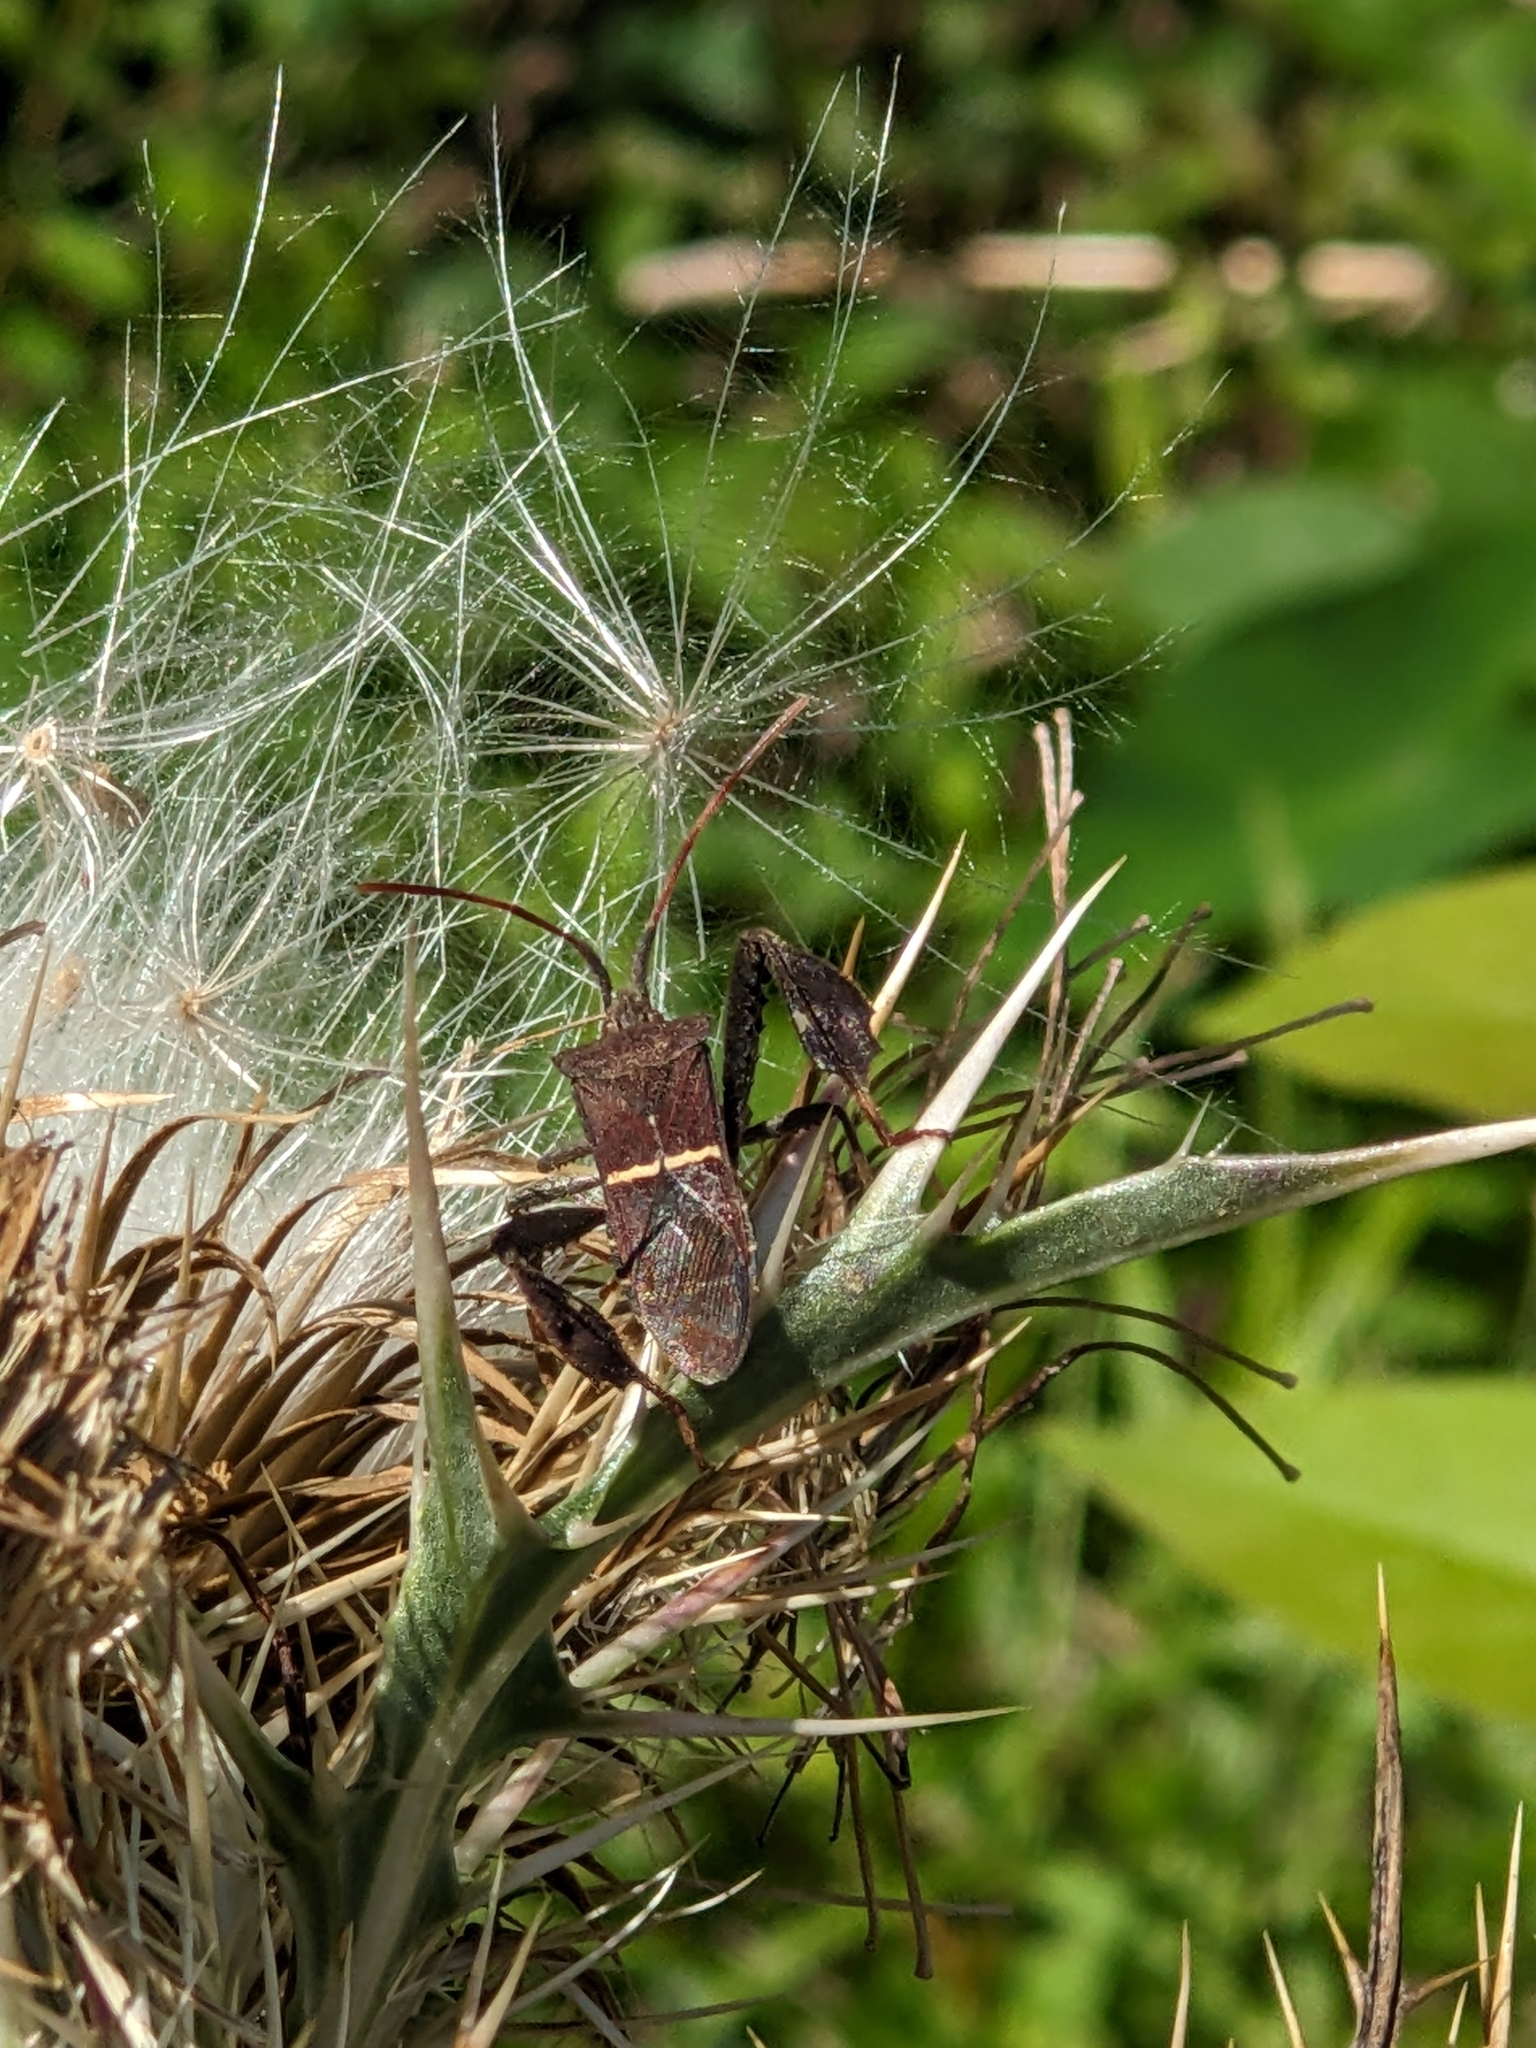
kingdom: Animalia
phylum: Arthropoda
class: Insecta
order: Hemiptera
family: Coreidae
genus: Leptoglossus
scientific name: Leptoglossus phyllopus
